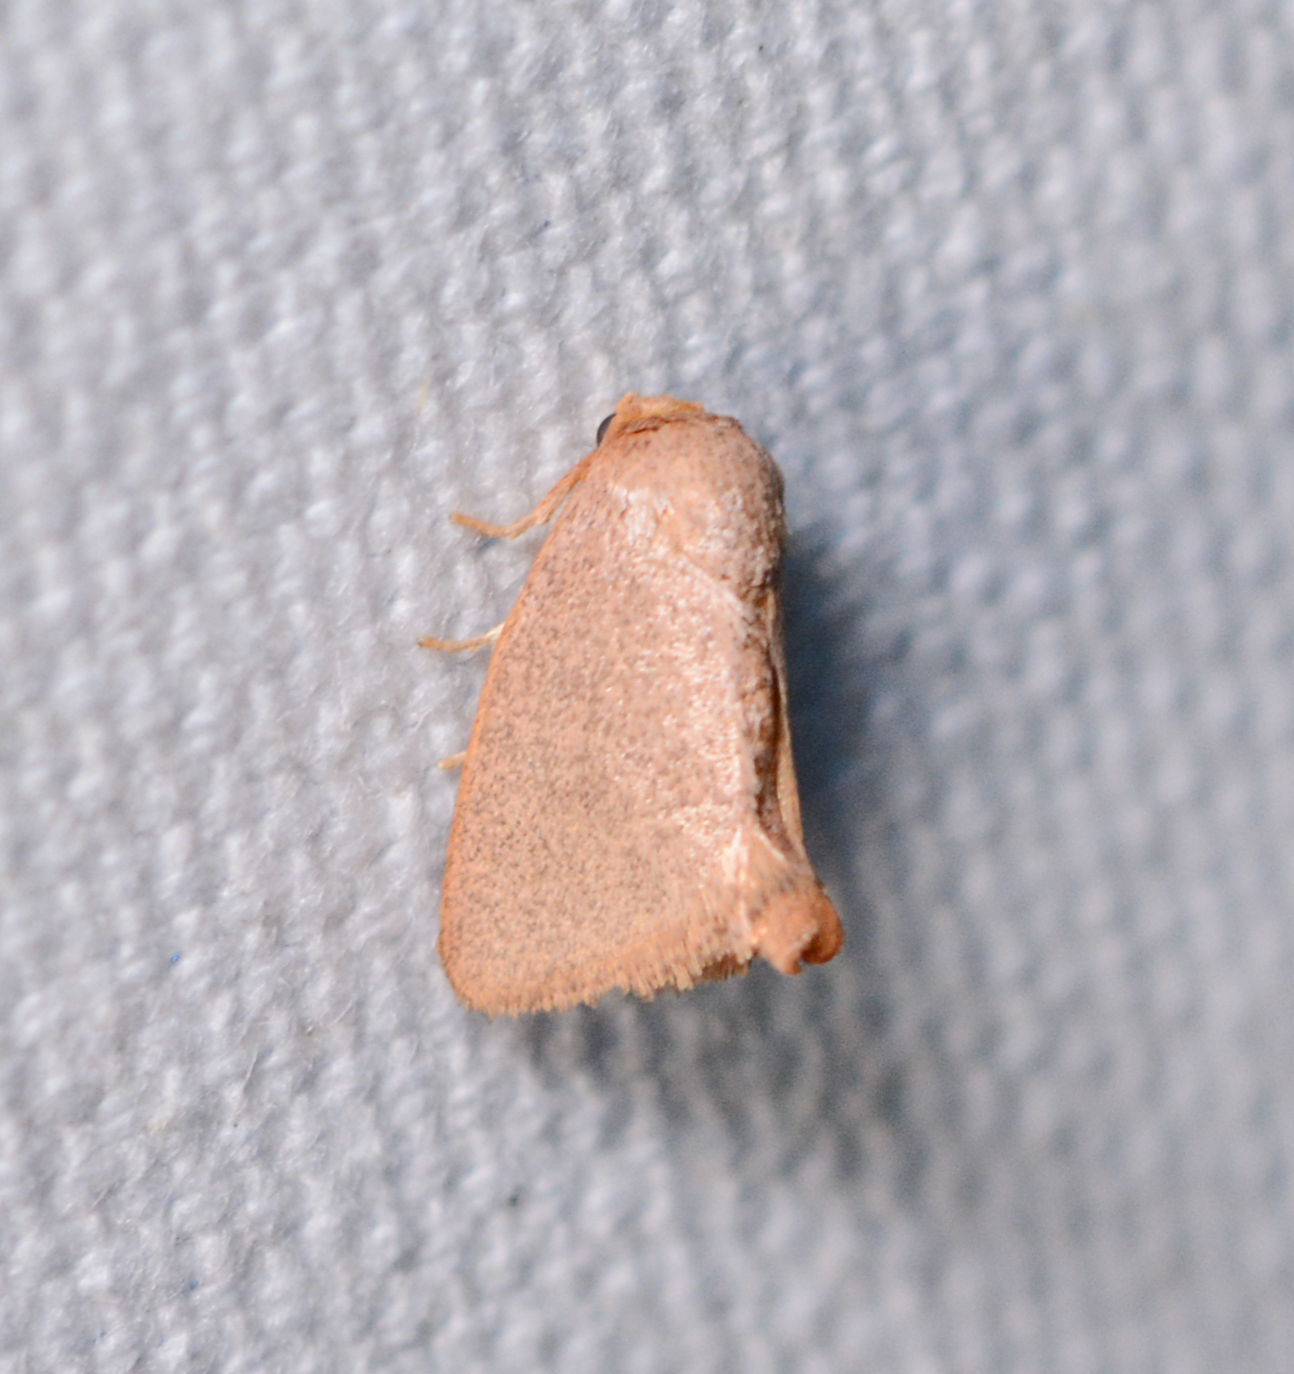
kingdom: Animalia
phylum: Arthropoda
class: Insecta
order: Lepidoptera
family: Limacodidae
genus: Tortricidia
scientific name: Tortricidia pallida
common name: Red-crossed button slug moth
